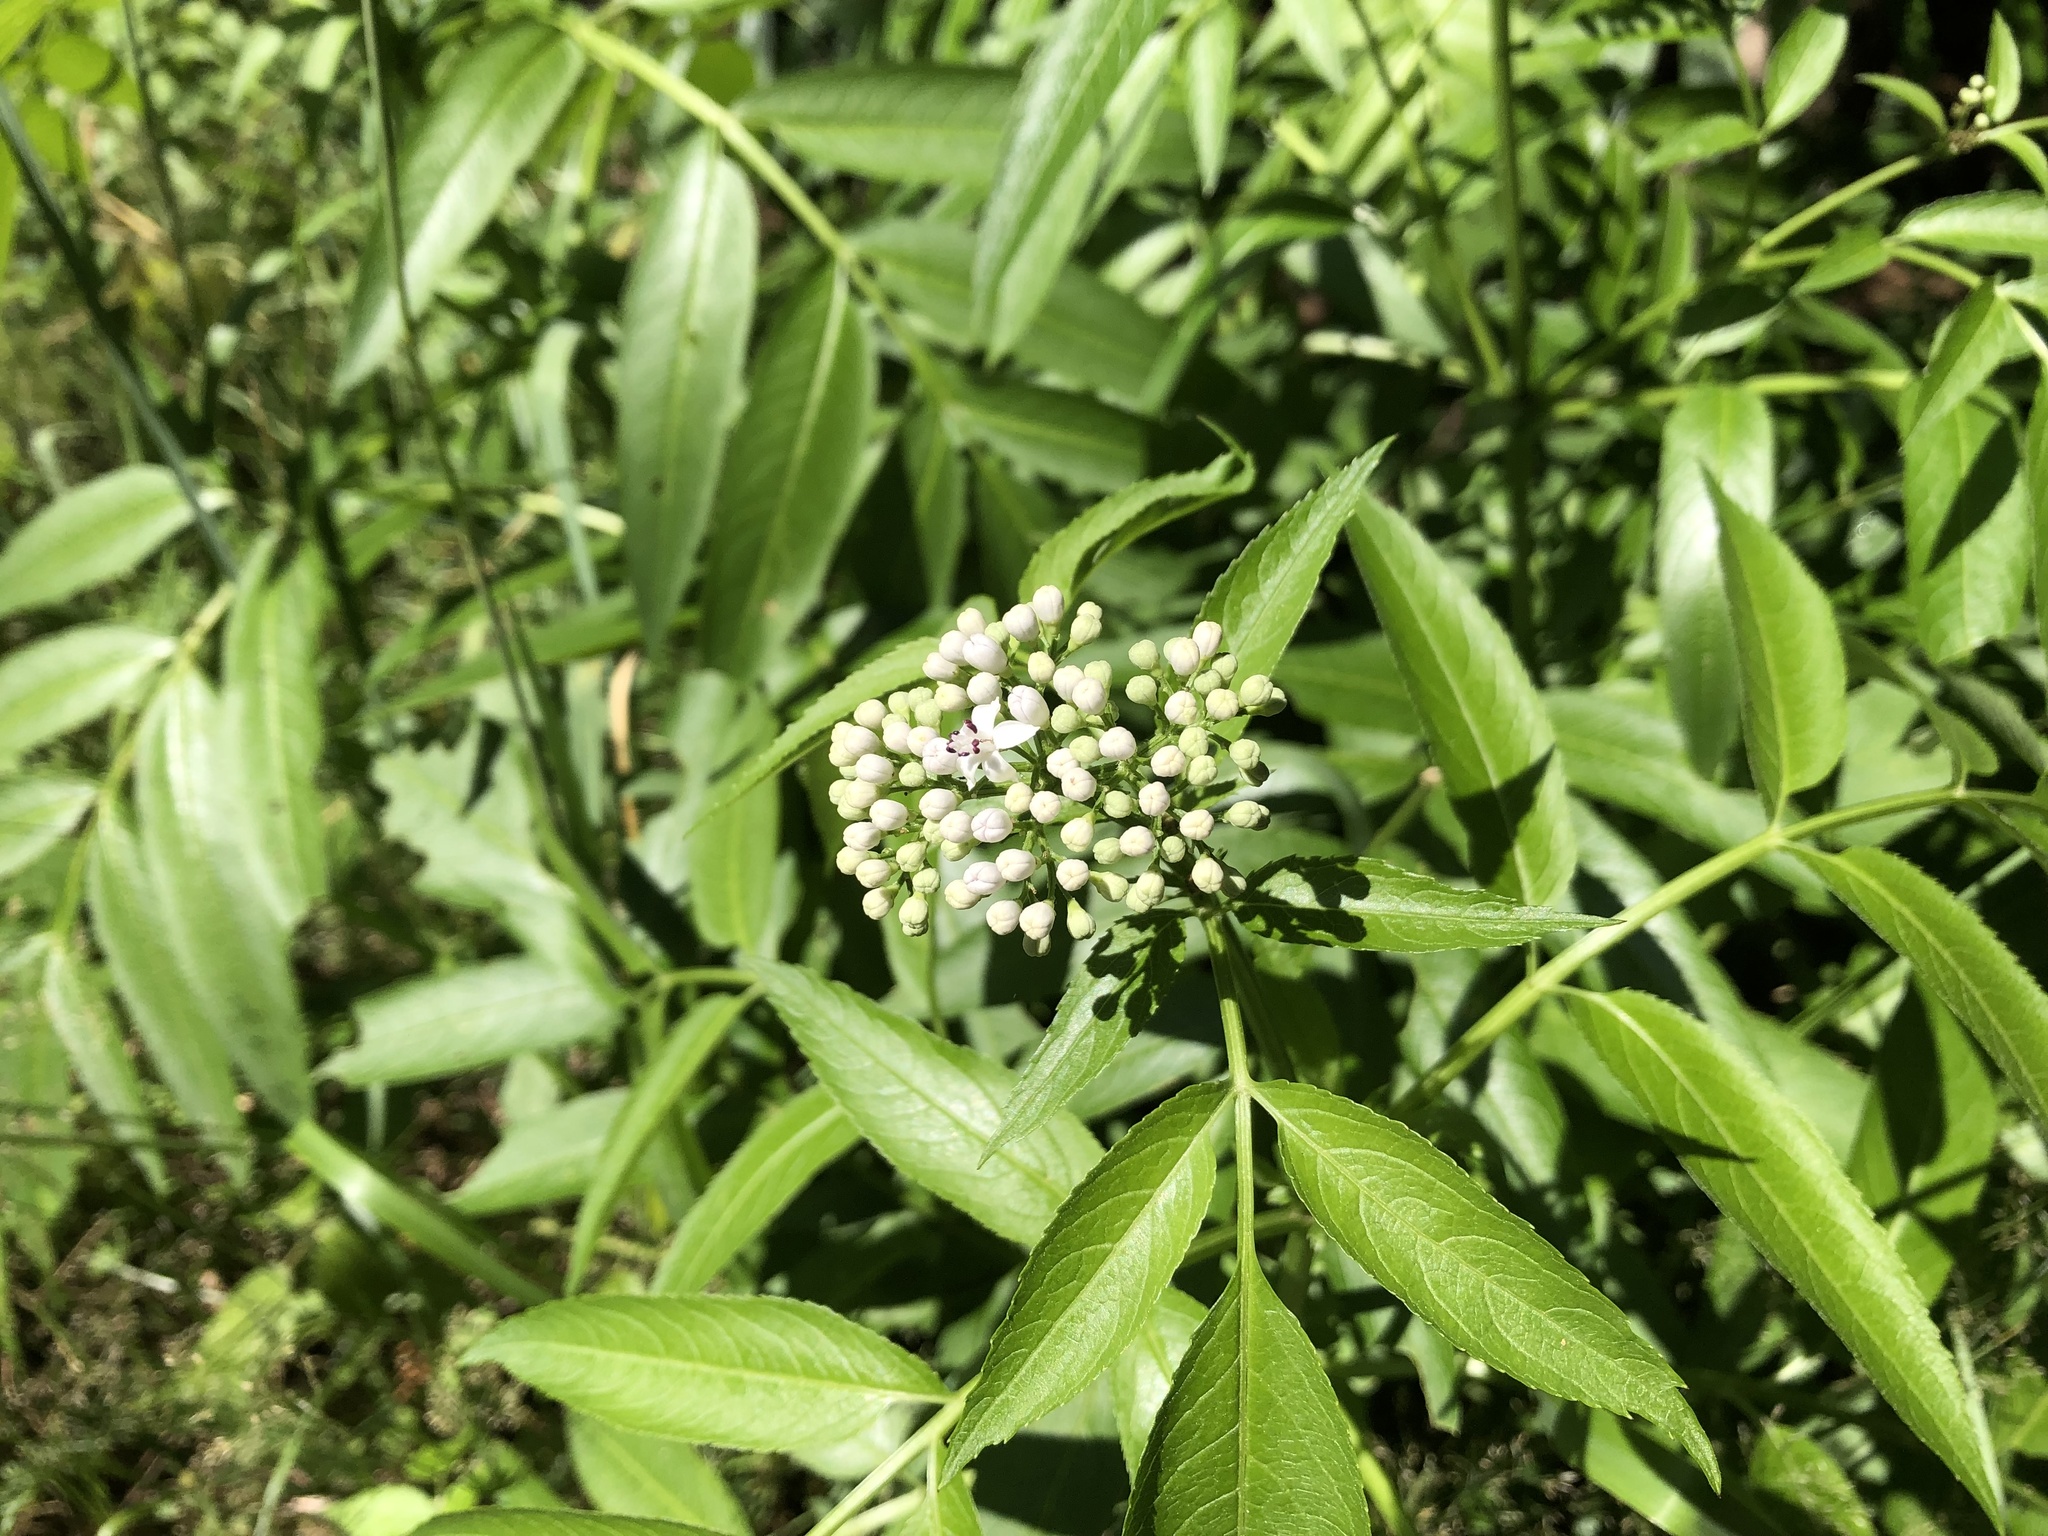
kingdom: Plantae
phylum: Tracheophyta
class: Magnoliopsida
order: Dipsacales
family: Viburnaceae
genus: Sambucus
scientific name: Sambucus ebulus
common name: Dwarf elder
